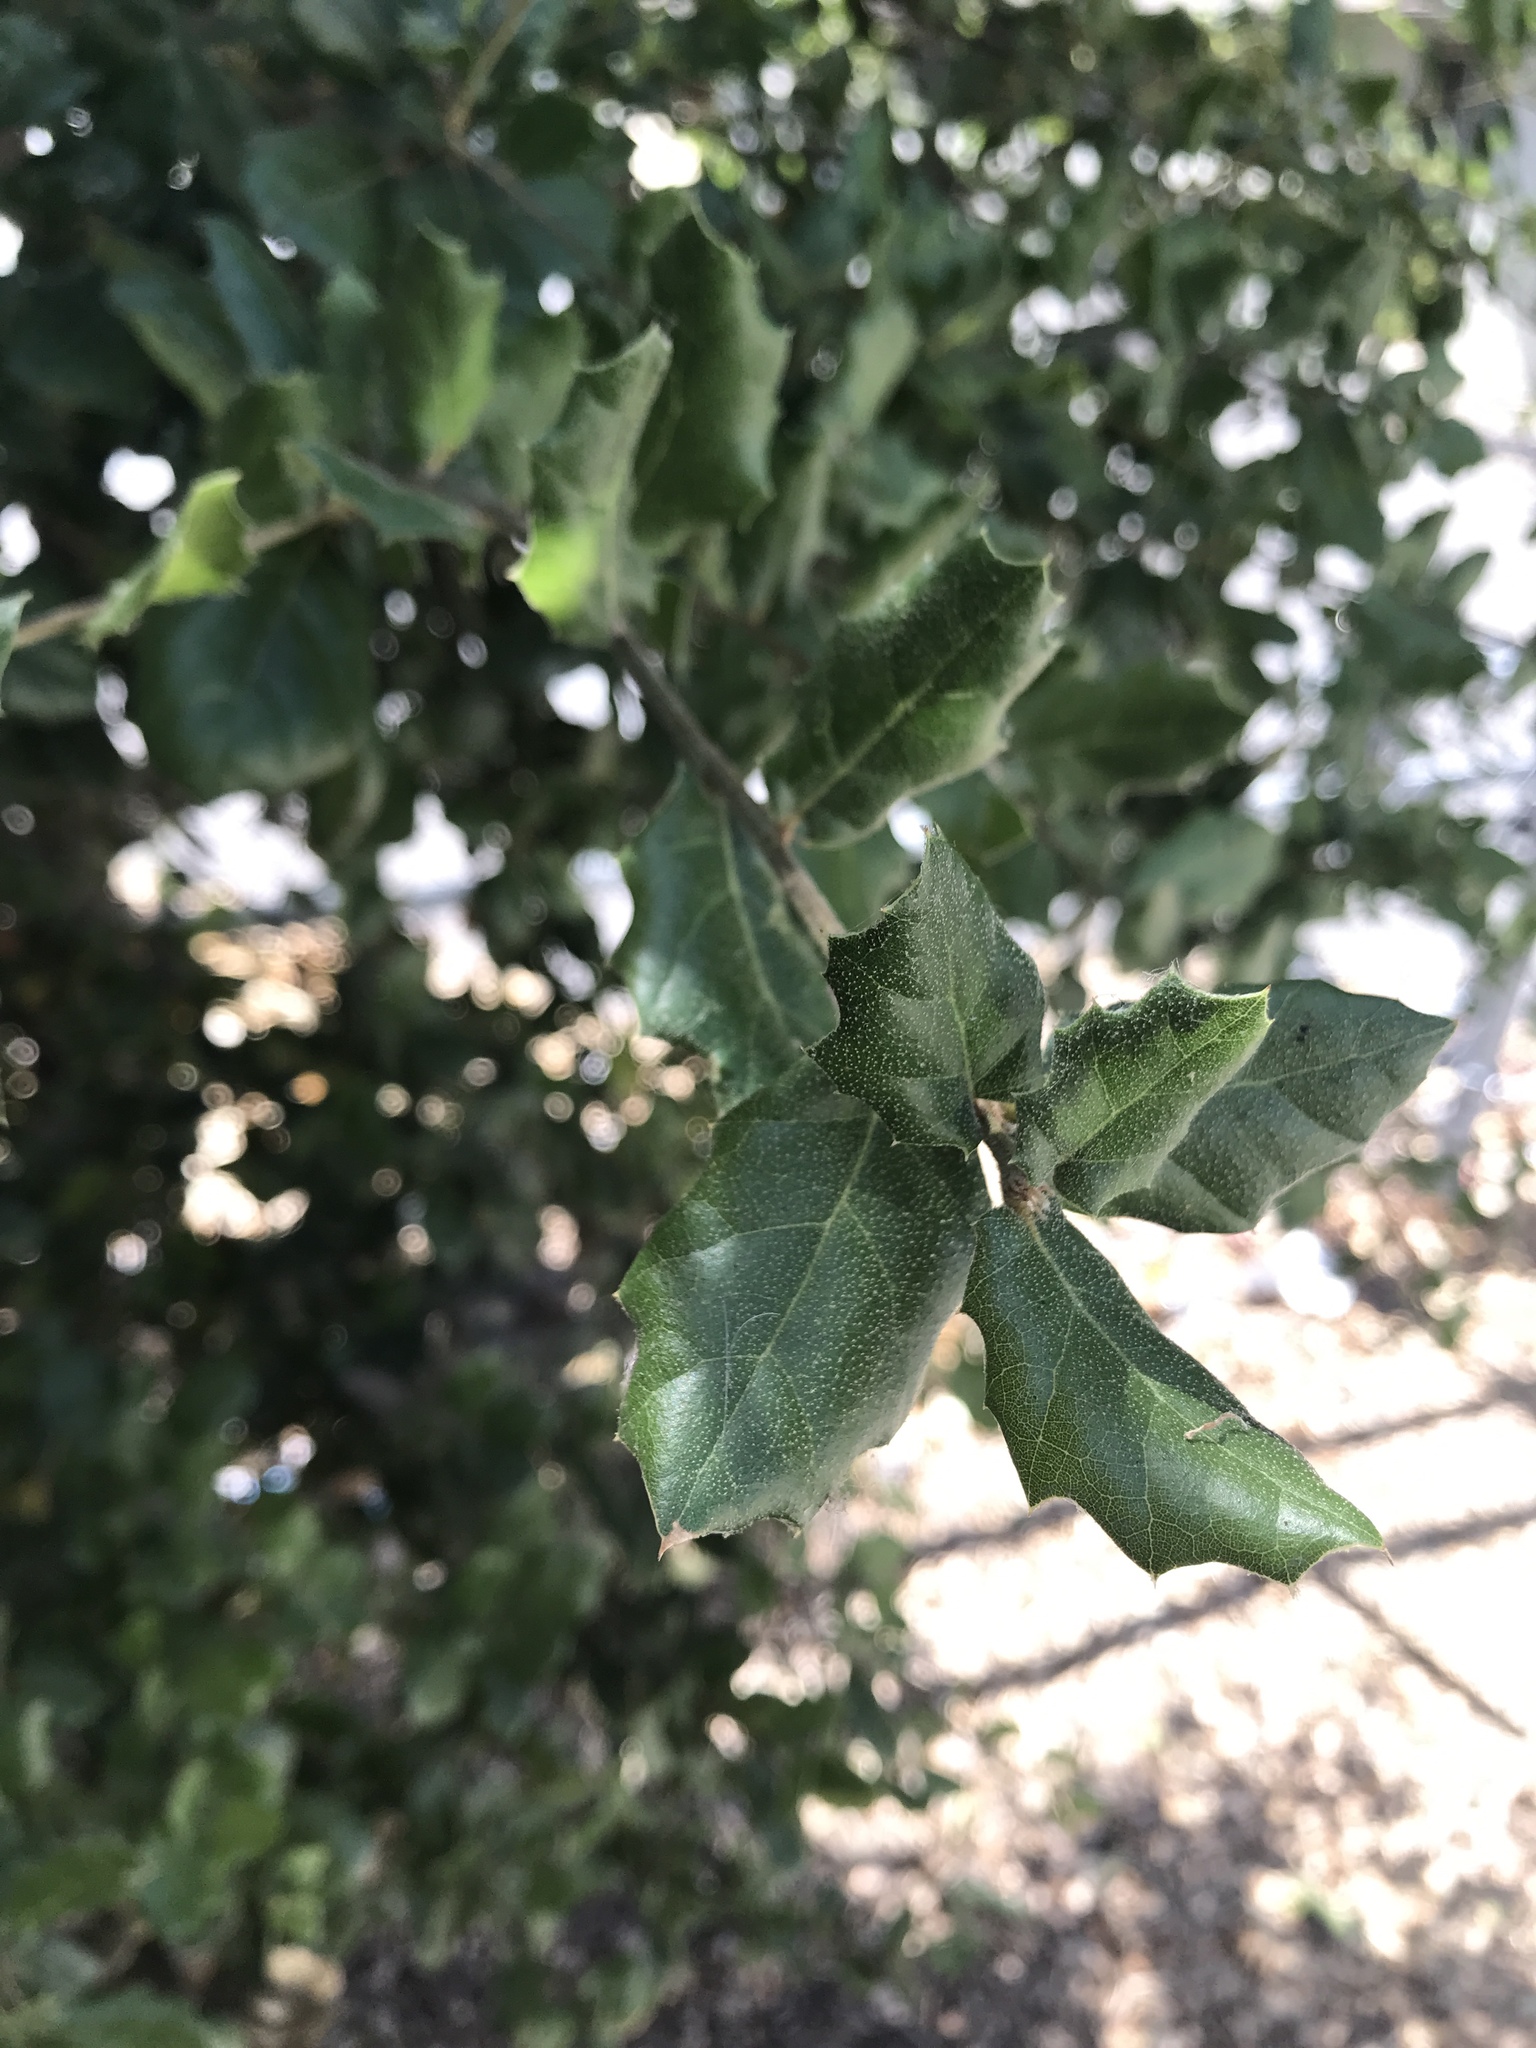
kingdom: Plantae
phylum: Tracheophyta
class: Magnoliopsida
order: Fagales
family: Fagaceae
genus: Quercus
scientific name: Quercus agrifolia
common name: California live oak
